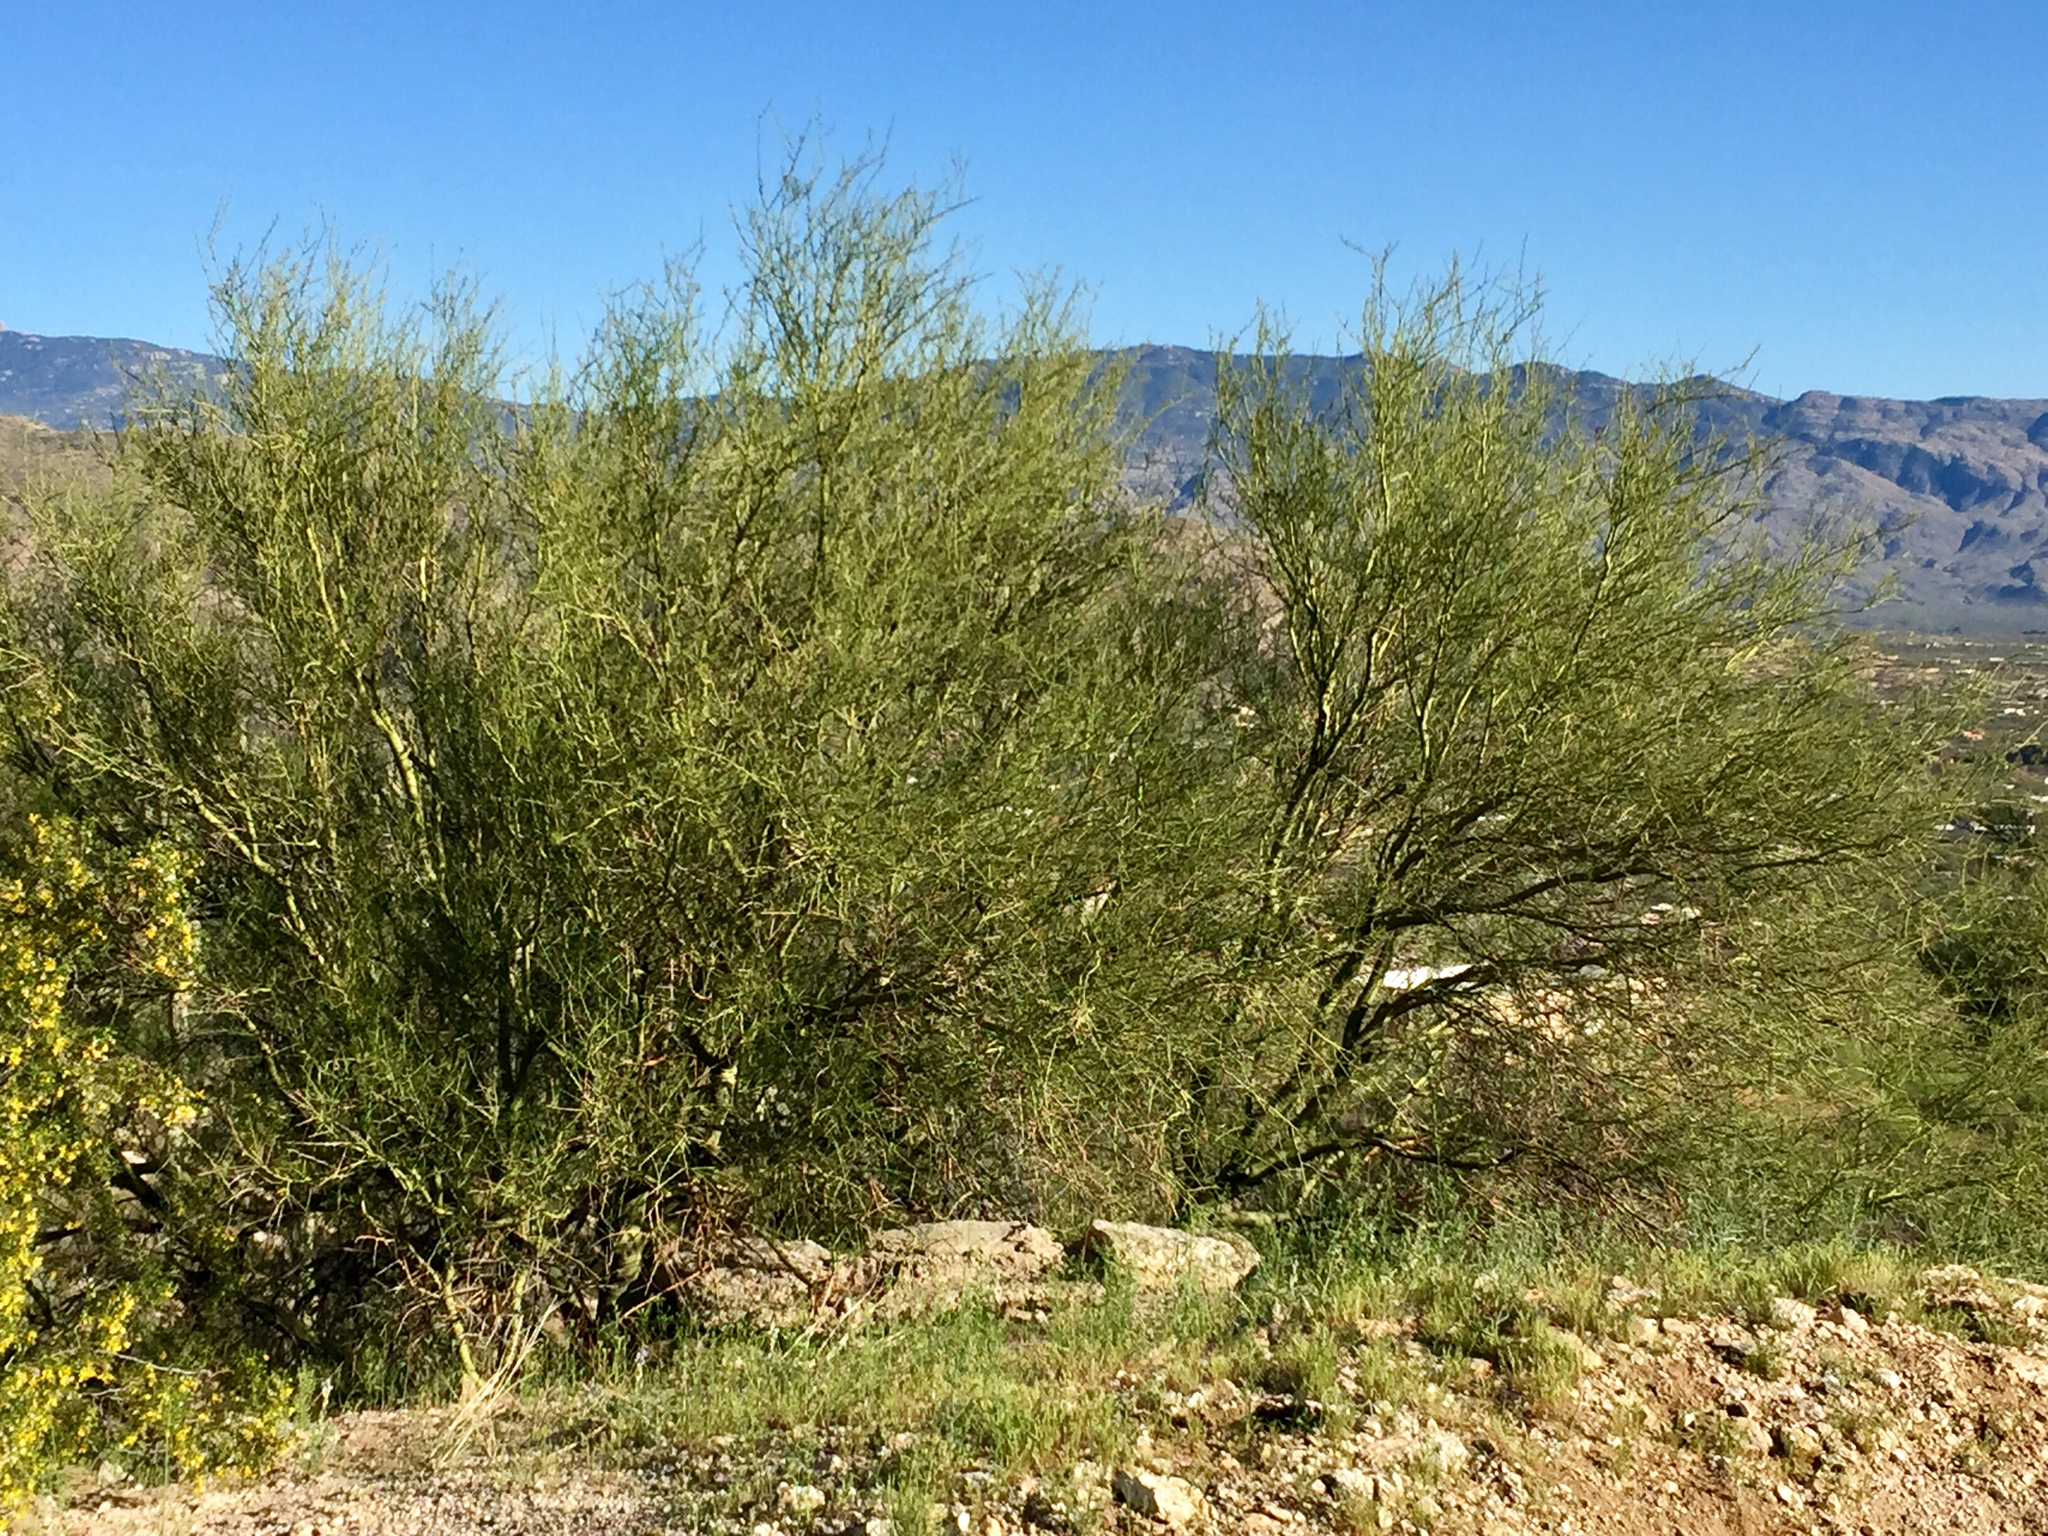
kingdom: Plantae
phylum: Tracheophyta
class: Magnoliopsida
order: Fabales
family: Fabaceae
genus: Parkinsonia
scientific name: Parkinsonia microphylla
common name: Yellow paloverde
